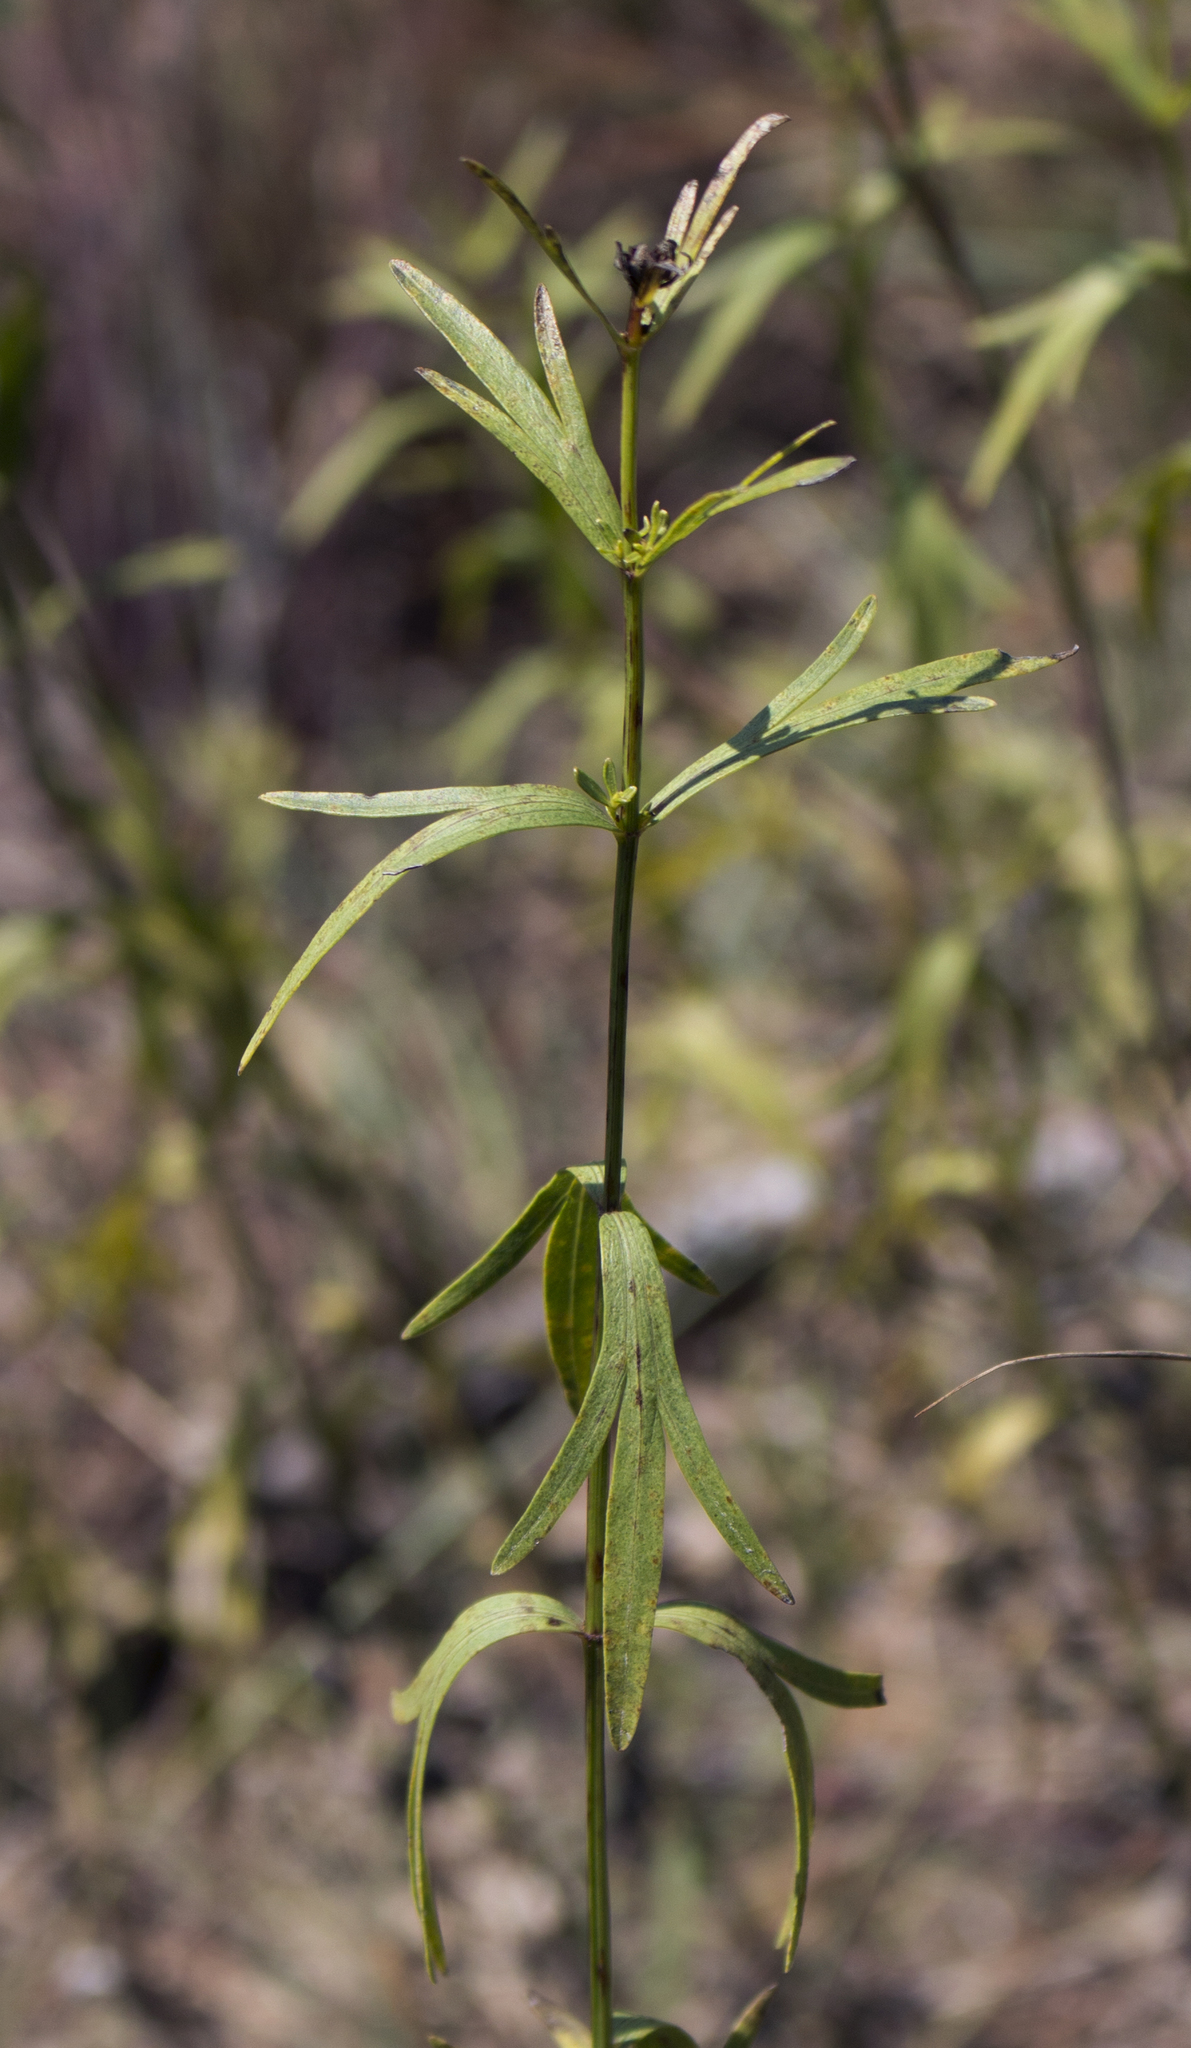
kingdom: Plantae
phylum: Tracheophyta
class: Magnoliopsida
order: Asterales
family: Asteraceae
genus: Coreopsis
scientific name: Coreopsis palmata
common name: Prairie coreopsis
